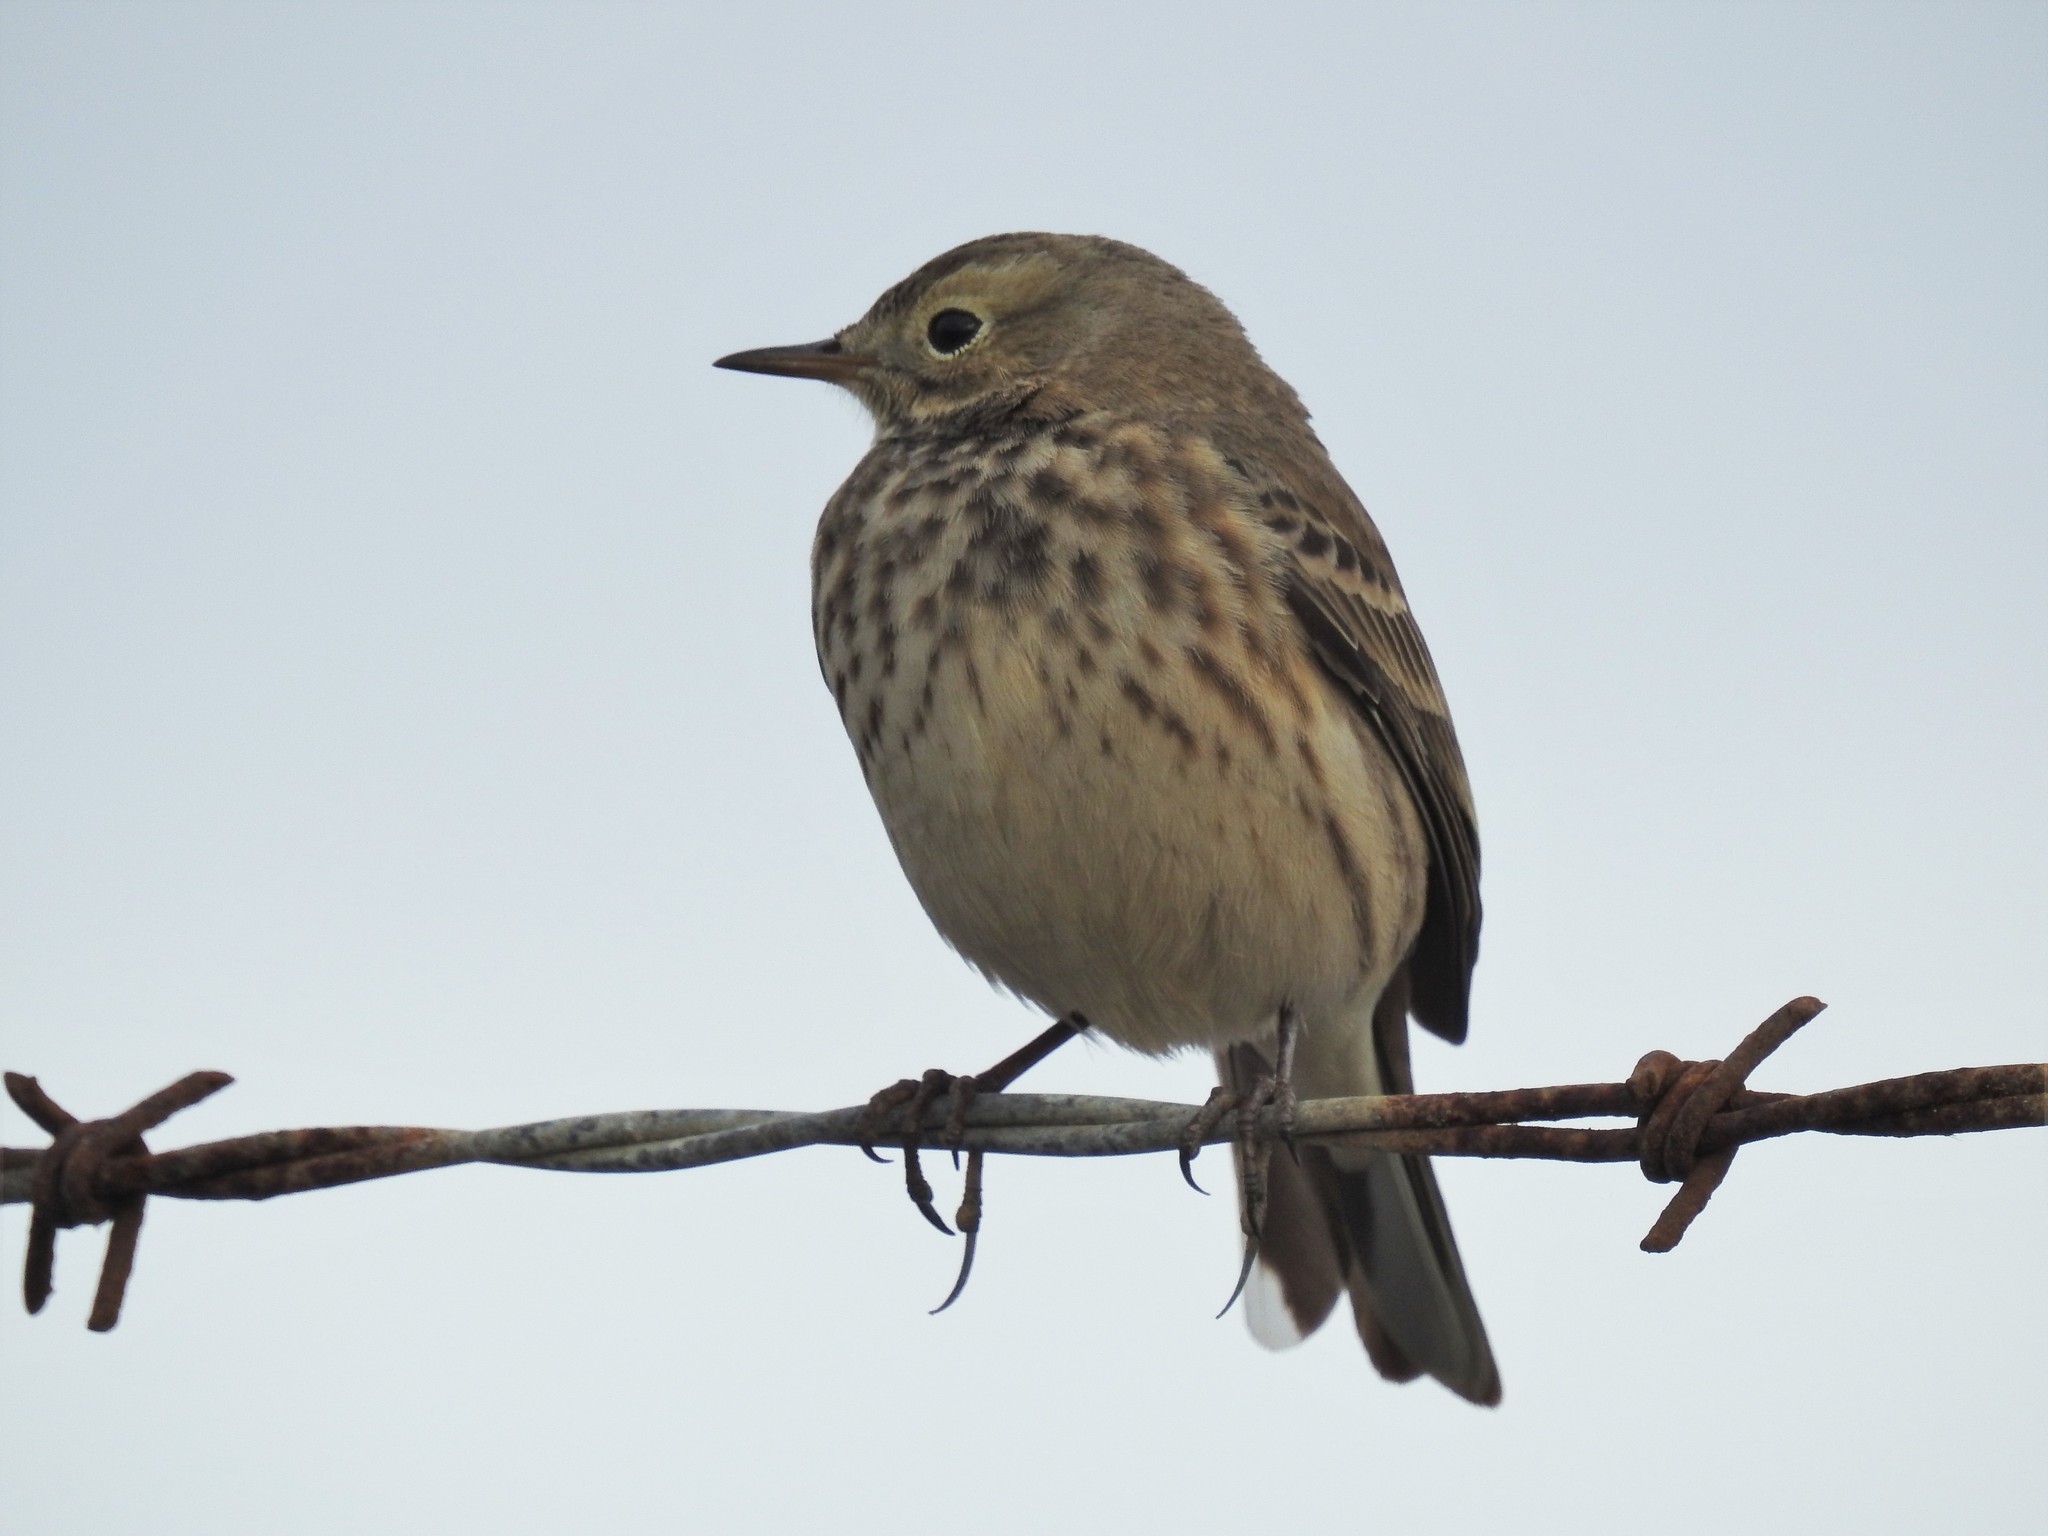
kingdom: Animalia
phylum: Chordata
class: Aves
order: Passeriformes
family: Motacillidae
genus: Anthus
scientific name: Anthus rubescens
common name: Buff-bellied pipit
